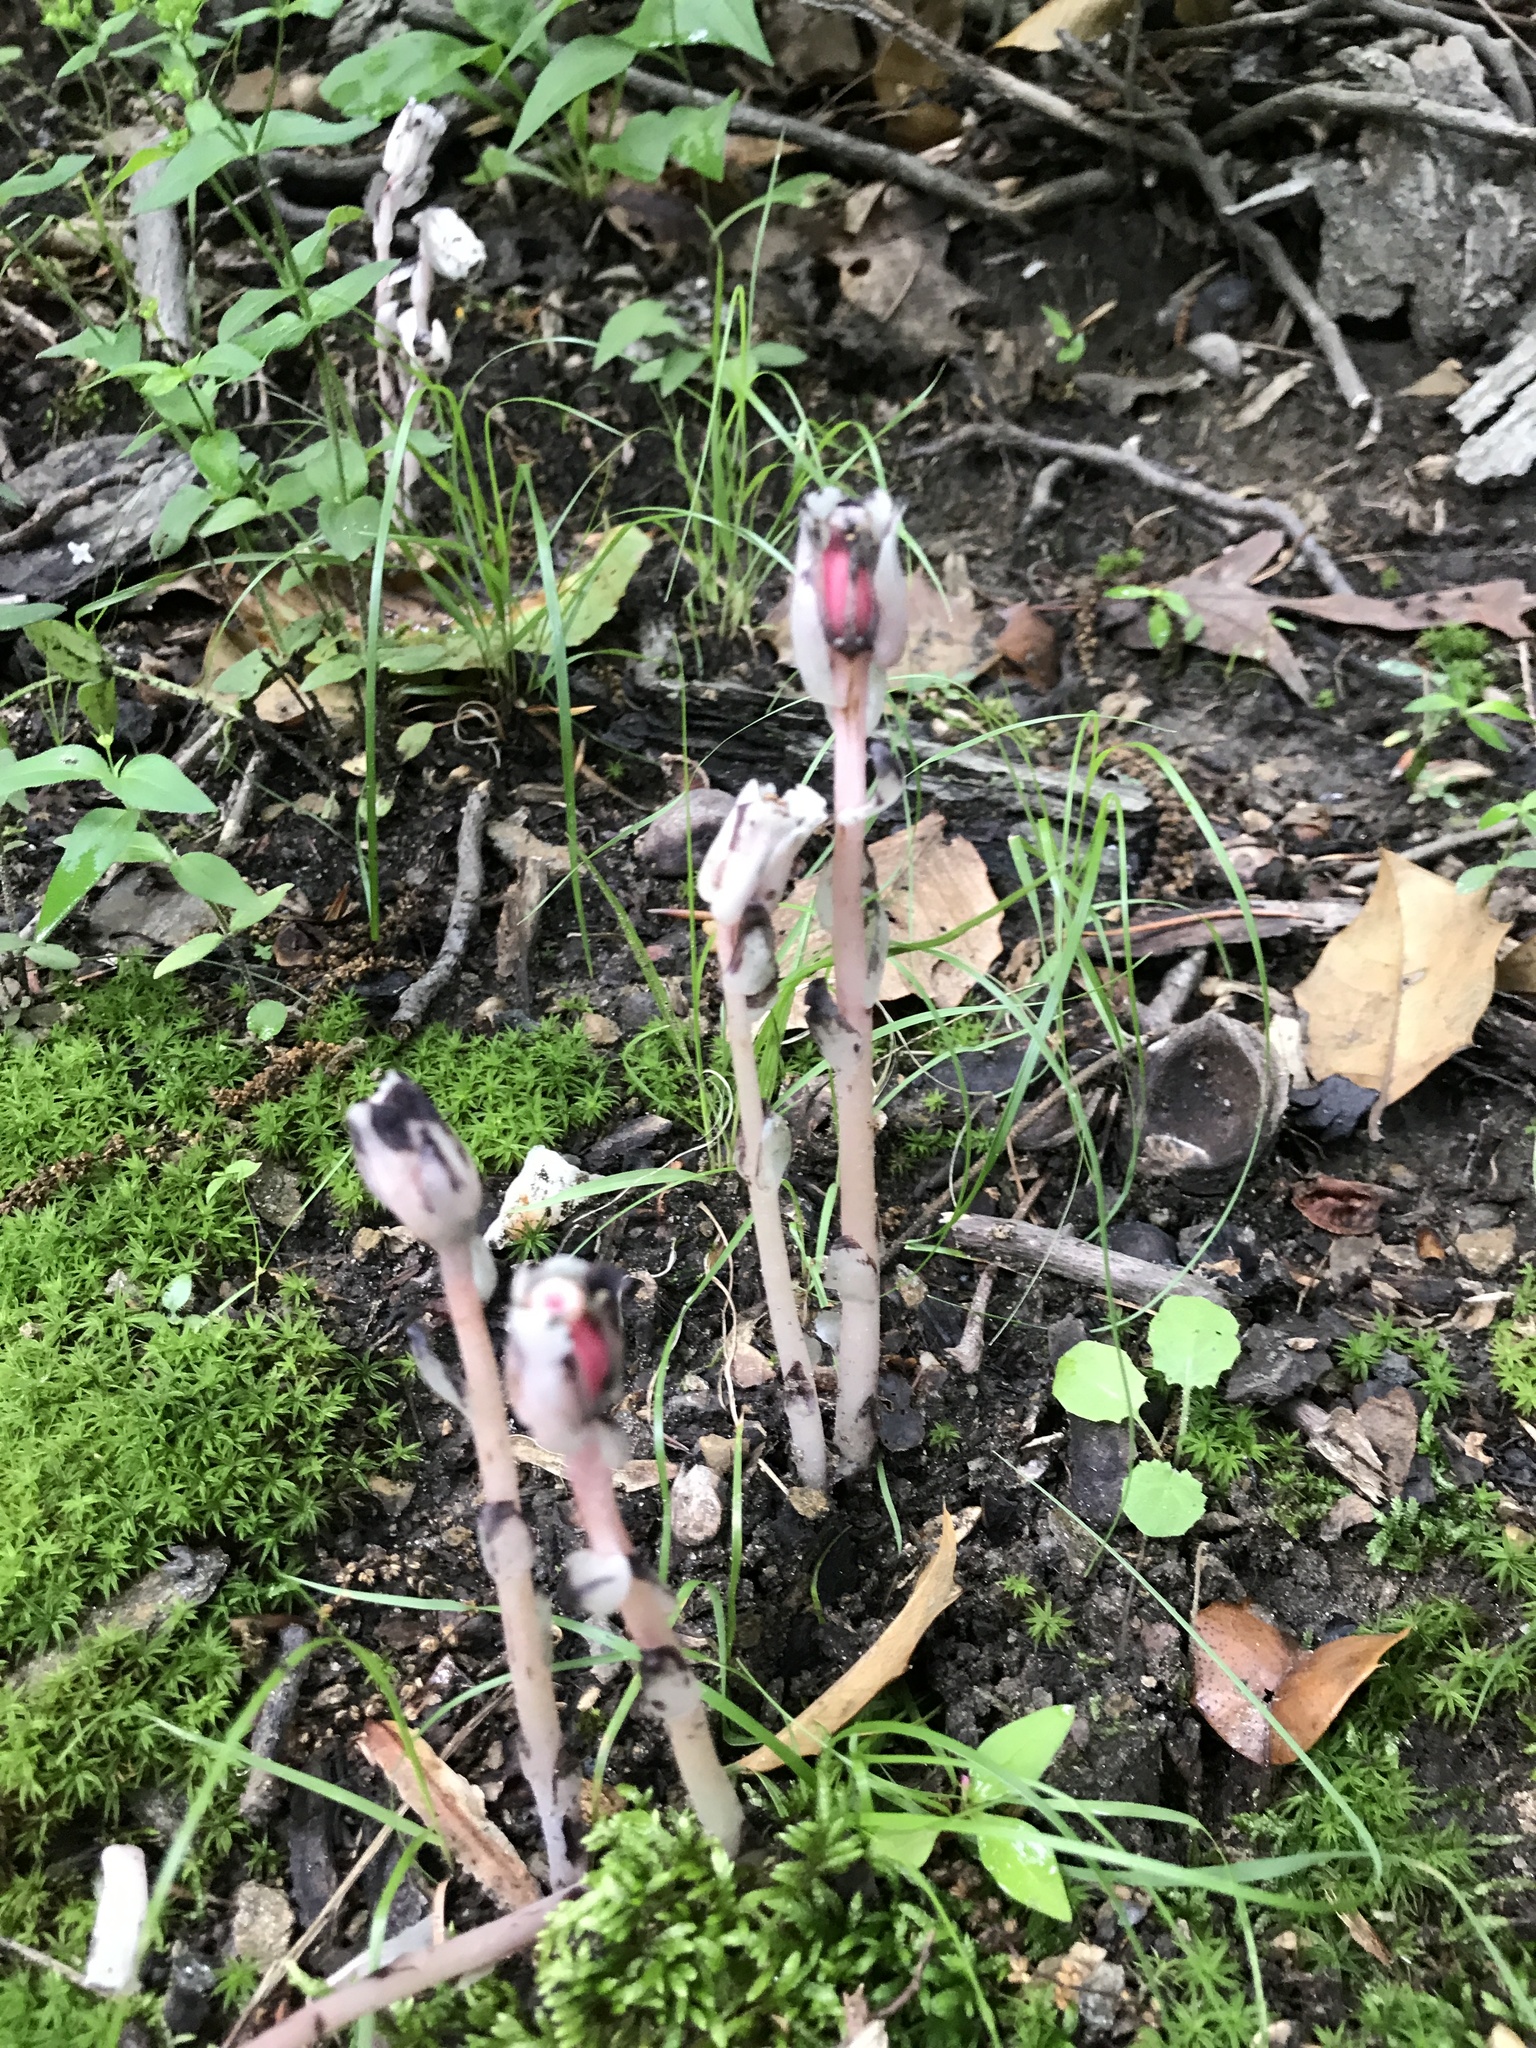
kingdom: Plantae
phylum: Tracheophyta
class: Magnoliopsida
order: Ericales
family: Ericaceae
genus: Monotropa
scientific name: Monotropa uniflora
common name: Convulsion root
